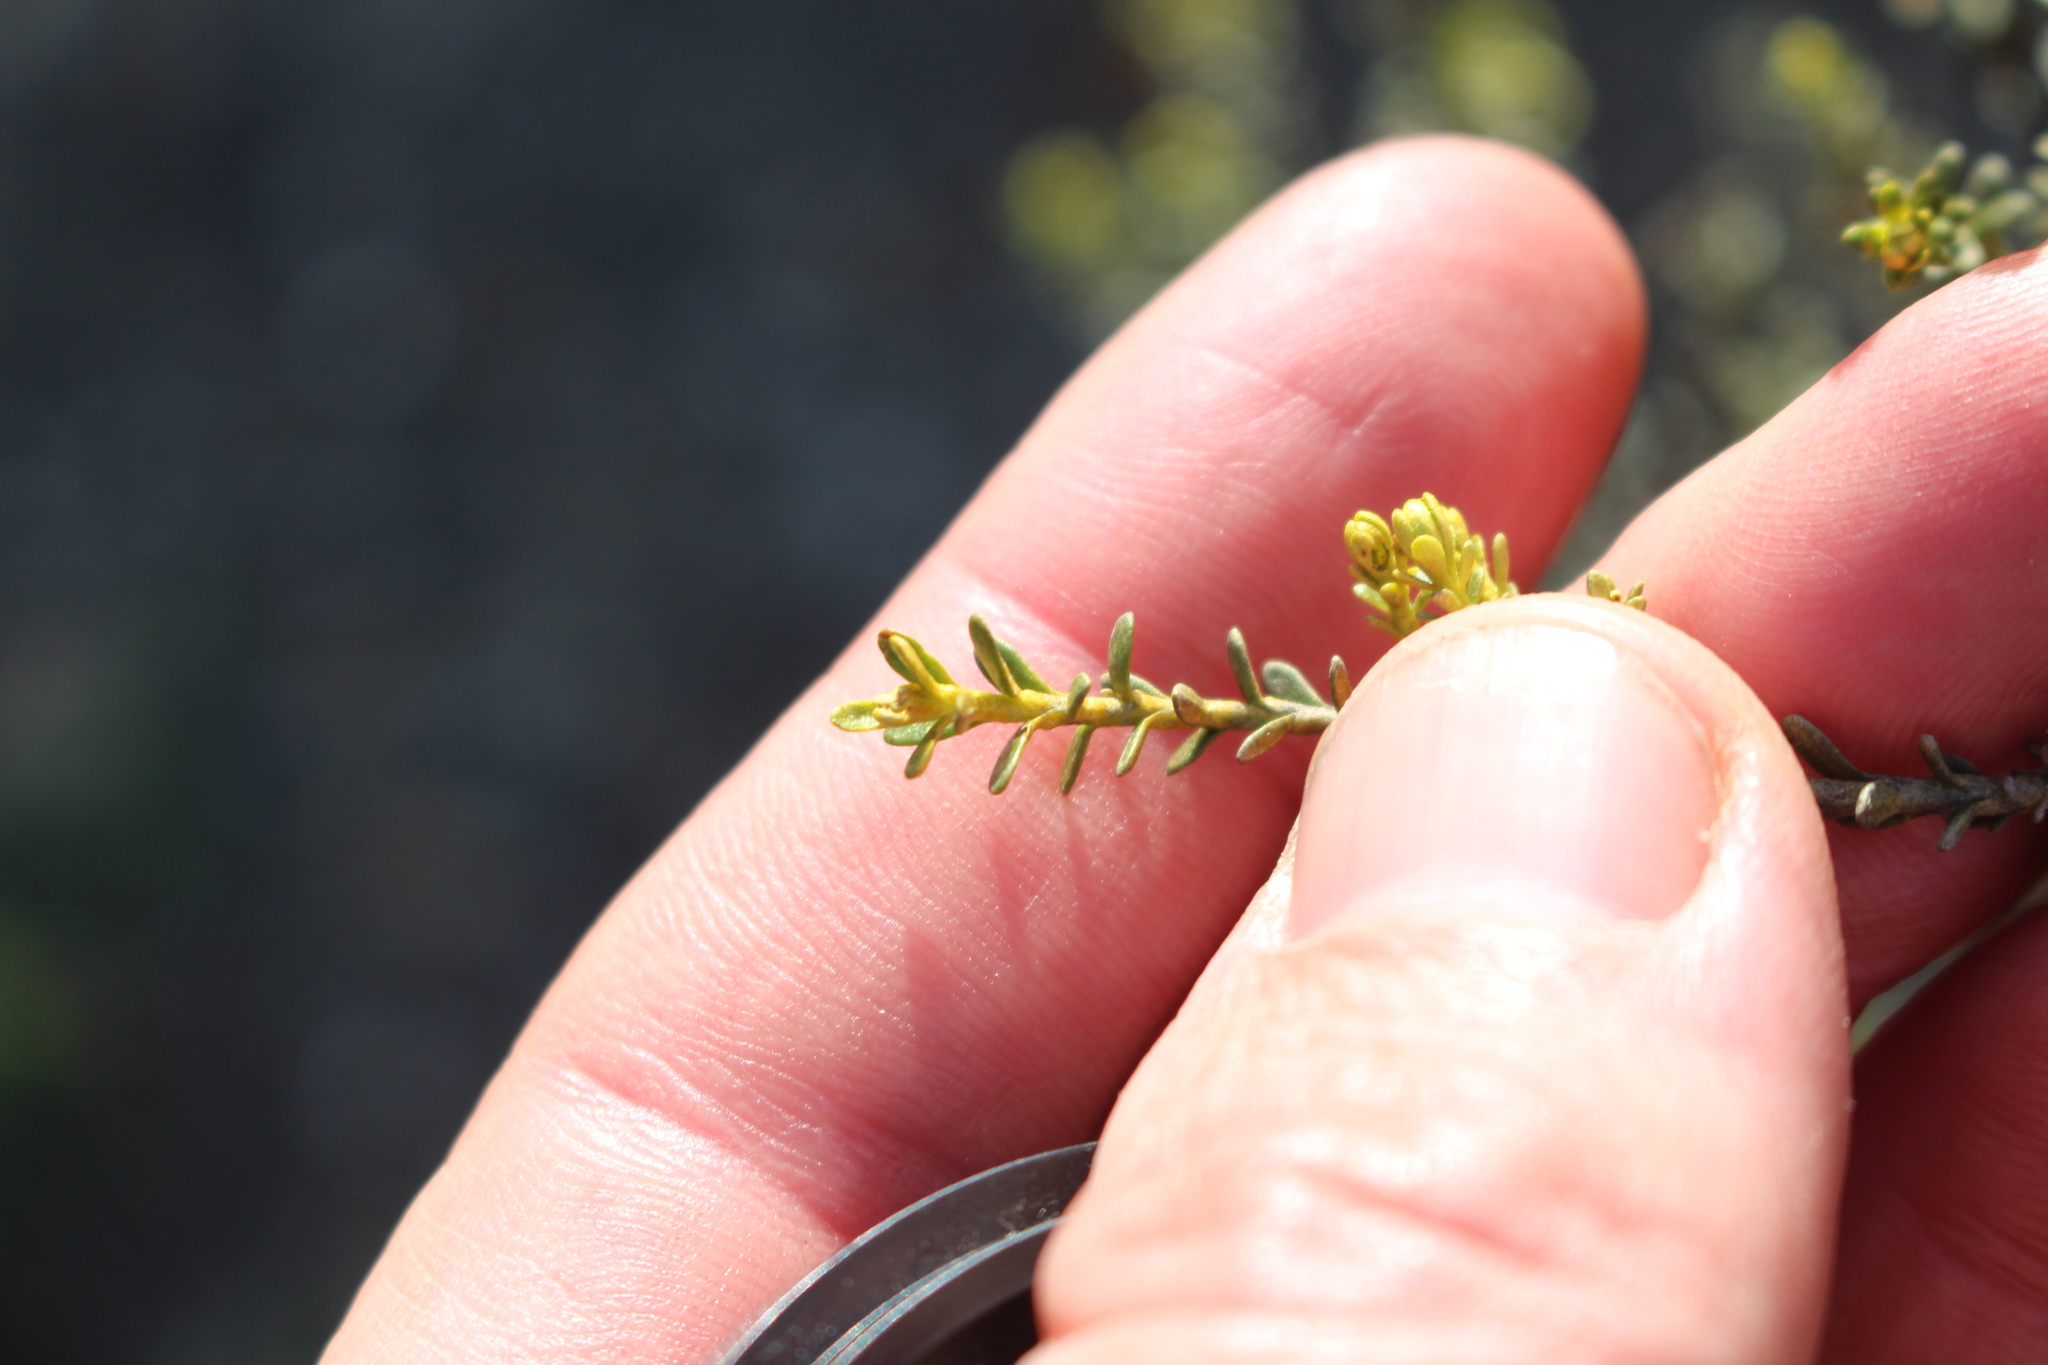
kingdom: Plantae
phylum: Tracheophyta
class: Magnoliopsida
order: Asterales
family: Asteraceae
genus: Ozothamnus
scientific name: Ozothamnus leptophyllus
